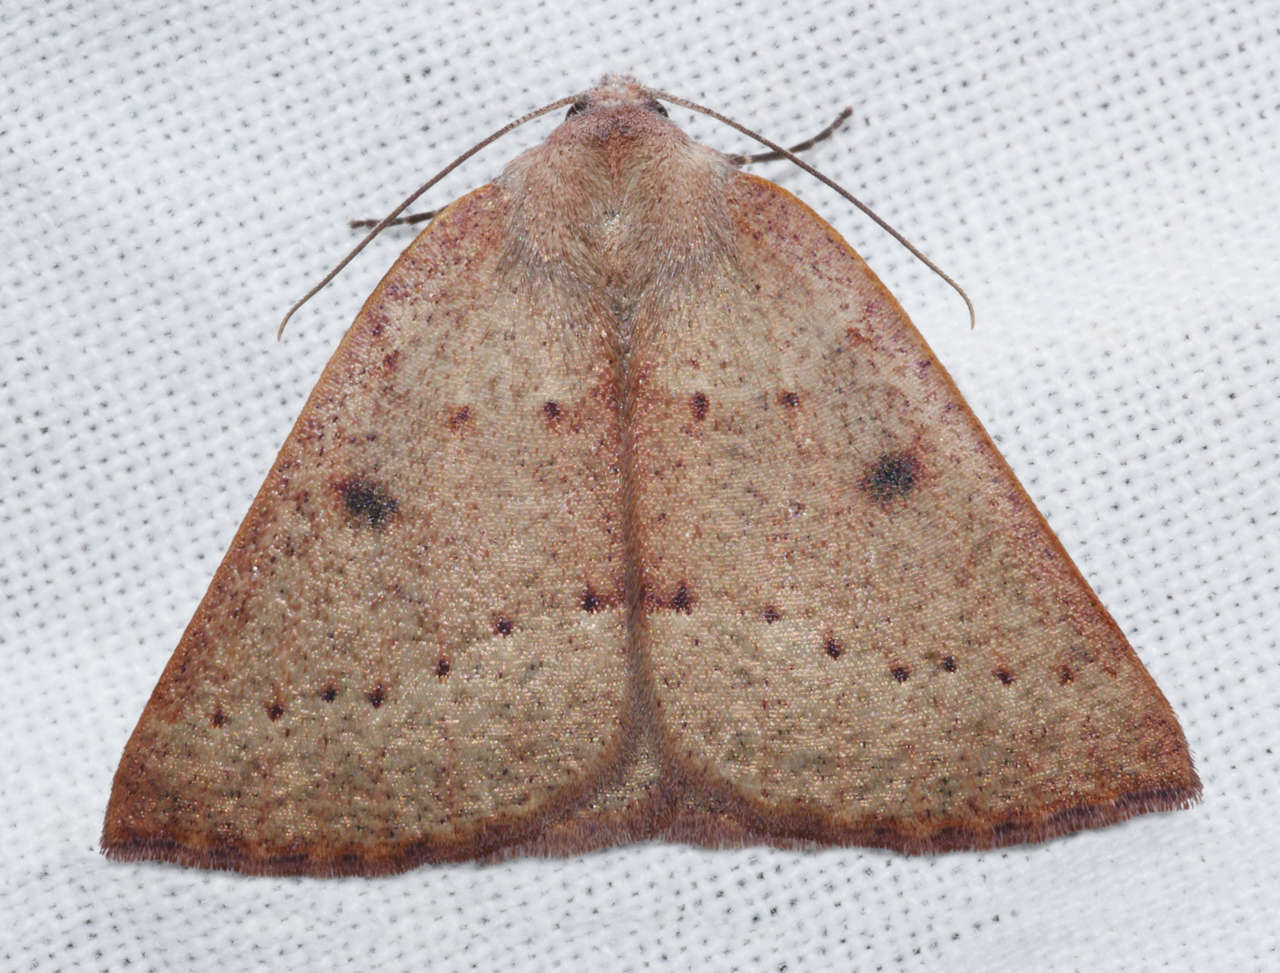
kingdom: Animalia
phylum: Arthropoda
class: Insecta
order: Lepidoptera
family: Geometridae
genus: Androchela
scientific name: Androchela milvaria
